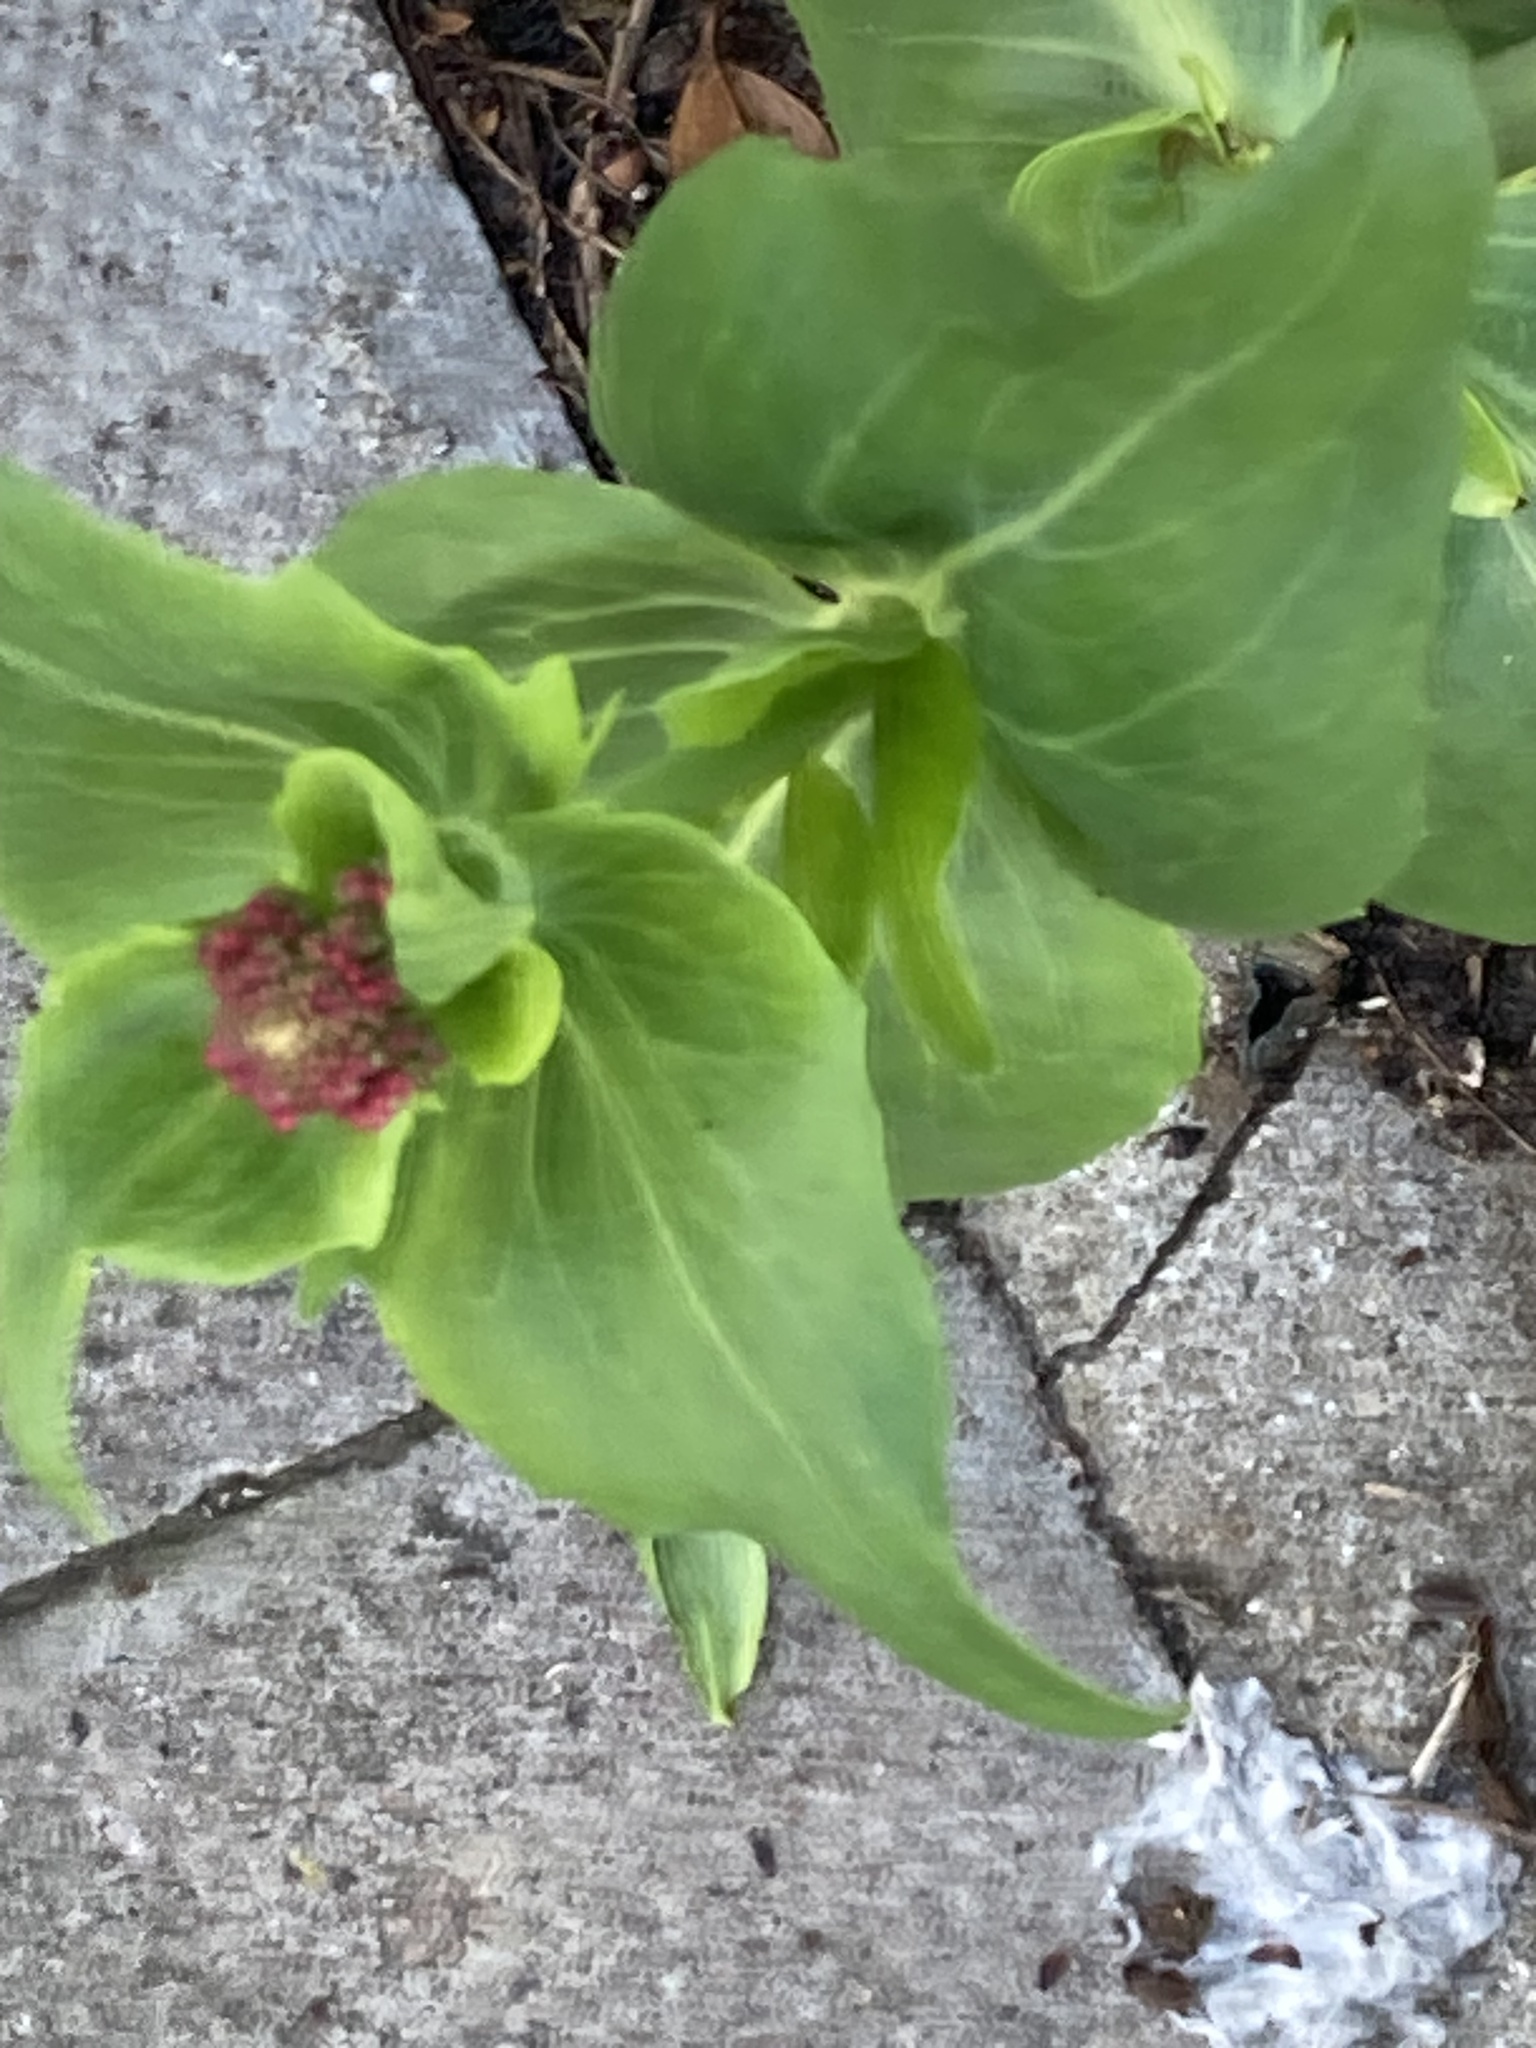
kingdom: Plantae
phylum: Tracheophyta
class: Magnoliopsida
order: Dipsacales
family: Caprifoliaceae
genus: Centranthus
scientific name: Centranthus ruber
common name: Red valerian
